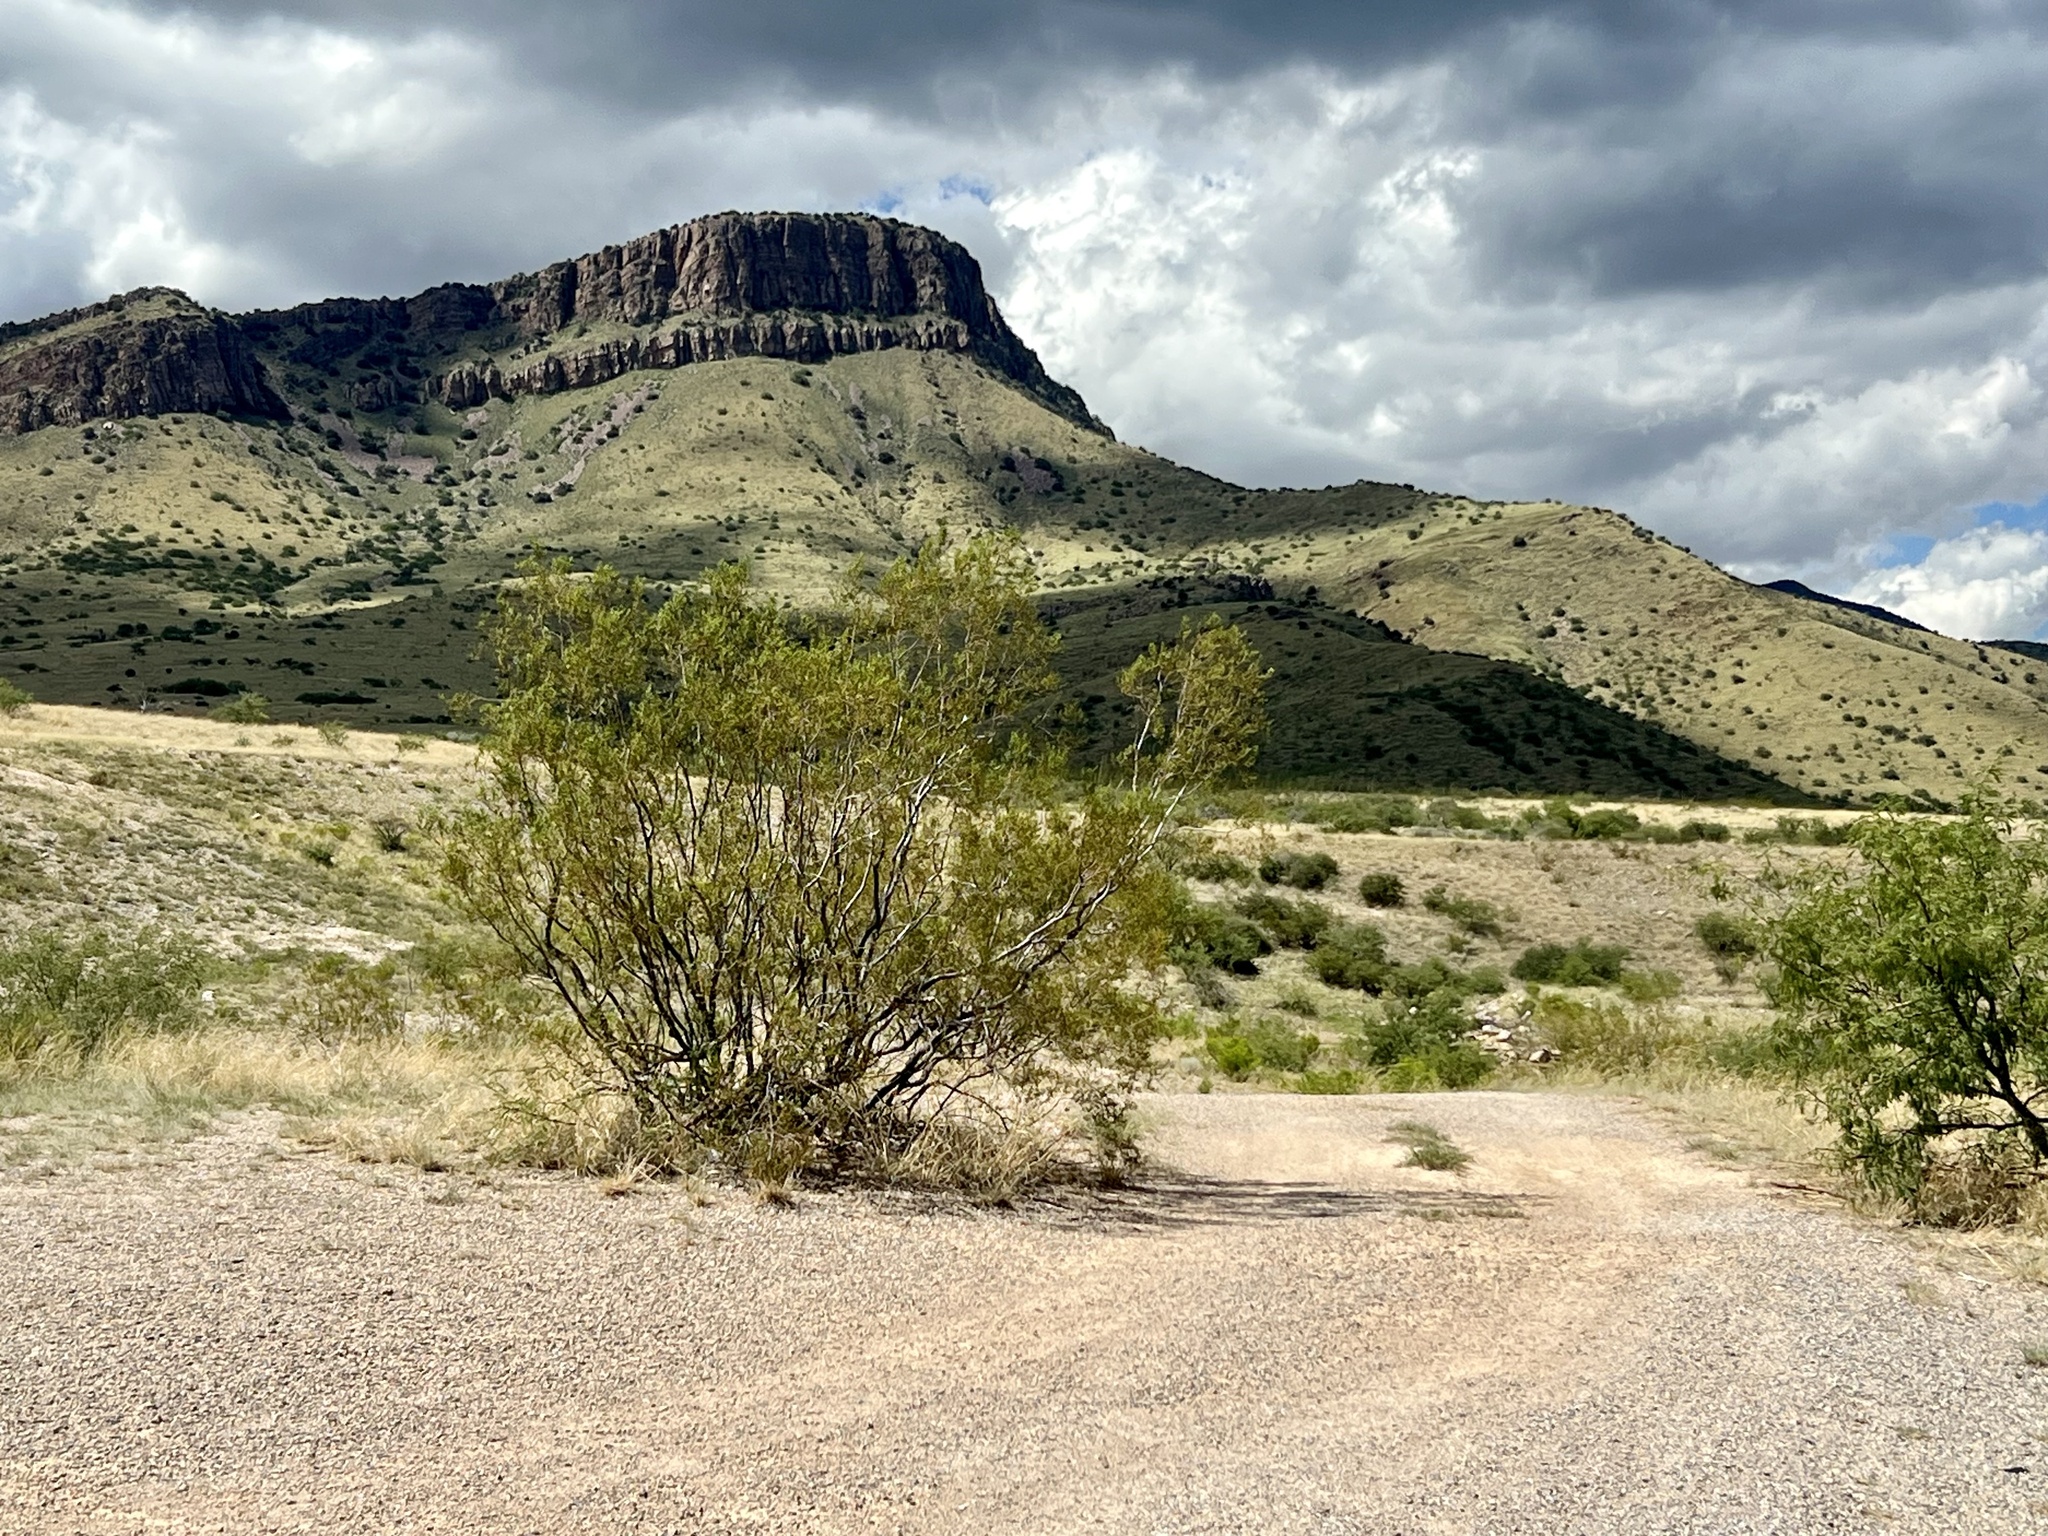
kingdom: Plantae
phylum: Tracheophyta
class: Magnoliopsida
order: Zygophyllales
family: Zygophyllaceae
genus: Larrea
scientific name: Larrea tridentata
